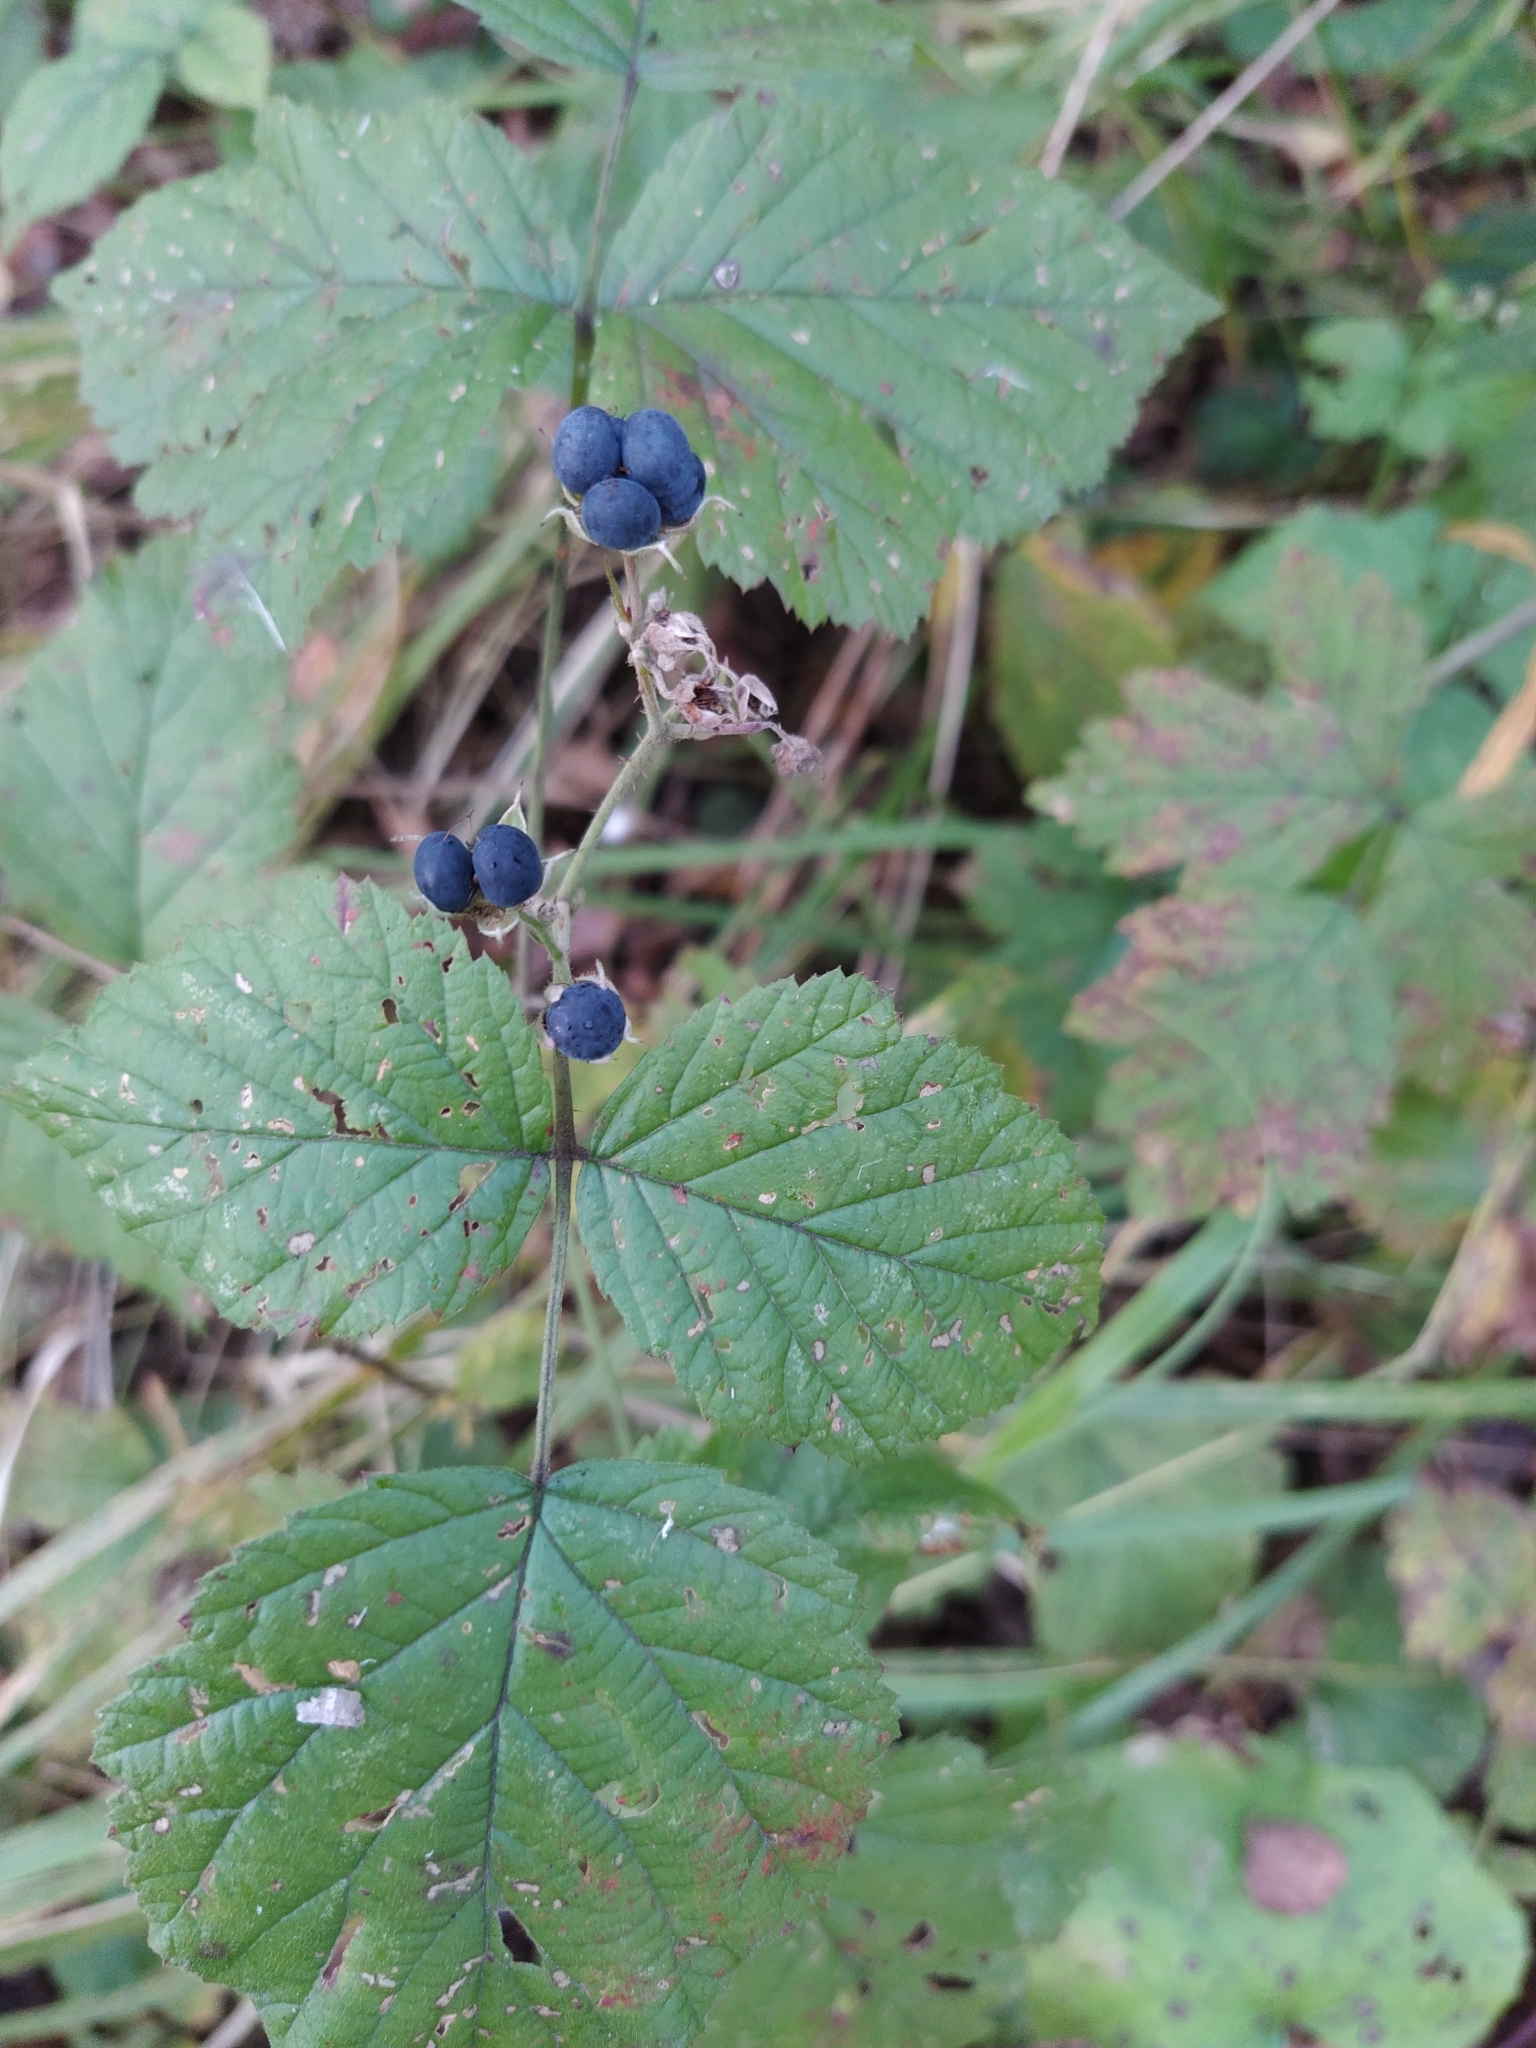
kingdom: Plantae
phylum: Tracheophyta
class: Magnoliopsida
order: Rosales
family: Rosaceae
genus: Rubus
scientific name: Rubus caesius
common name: Dewberry
